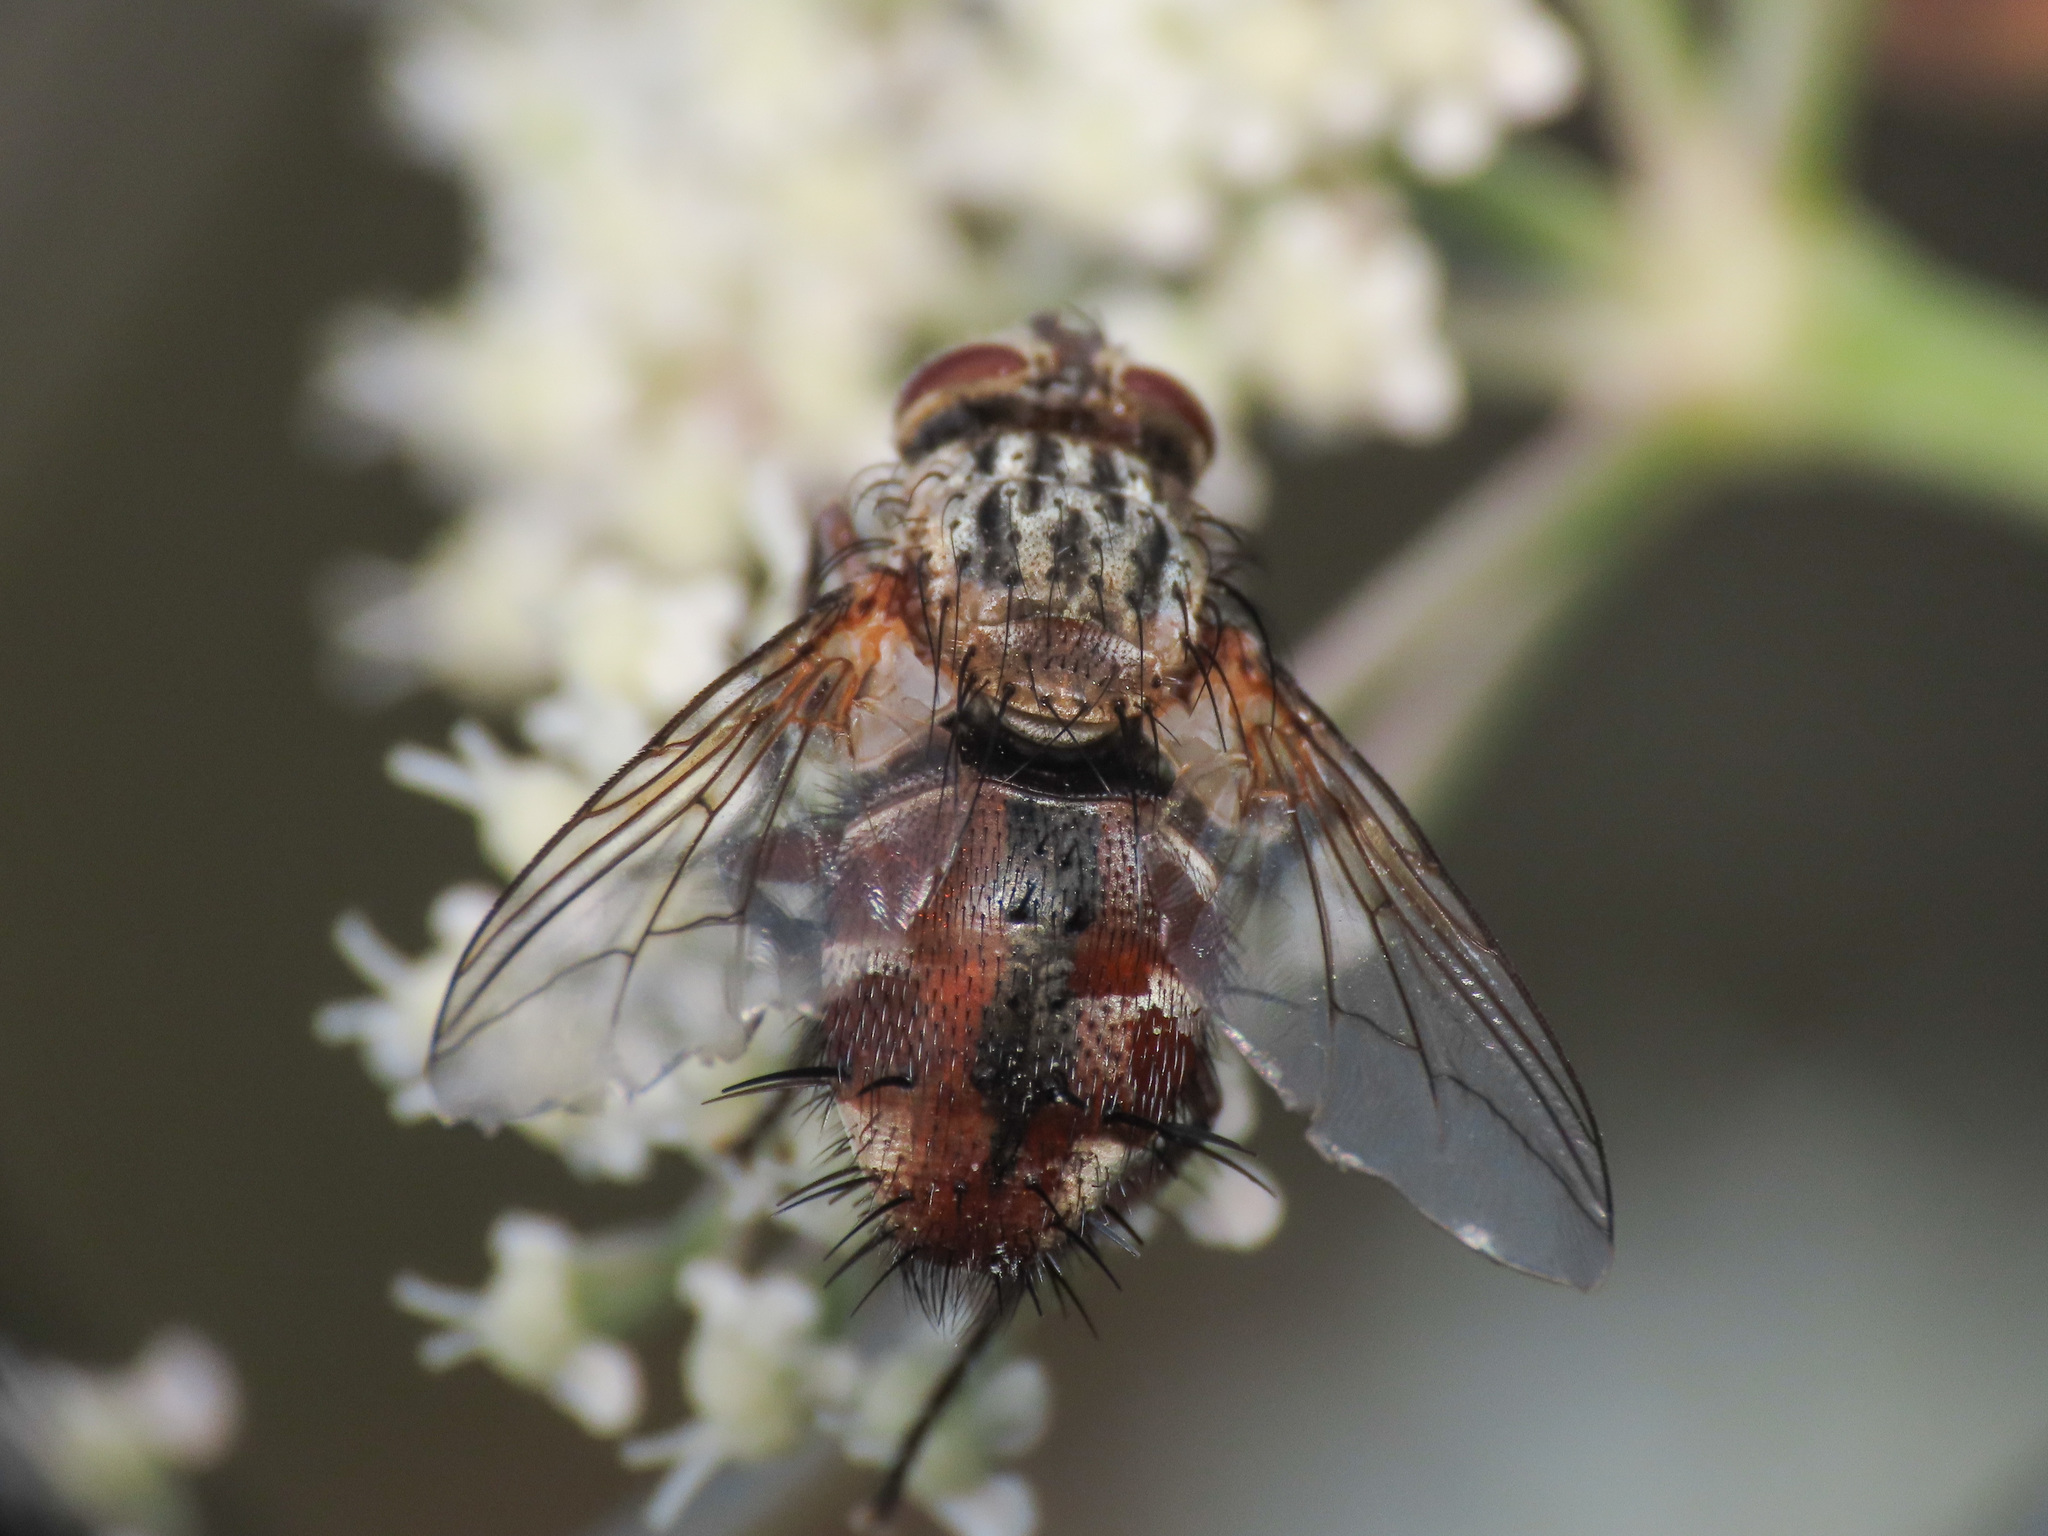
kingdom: Animalia
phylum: Arthropoda
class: Insecta
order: Diptera
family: Tachinidae
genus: Linnaemya
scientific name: Linnaemya vulpina
